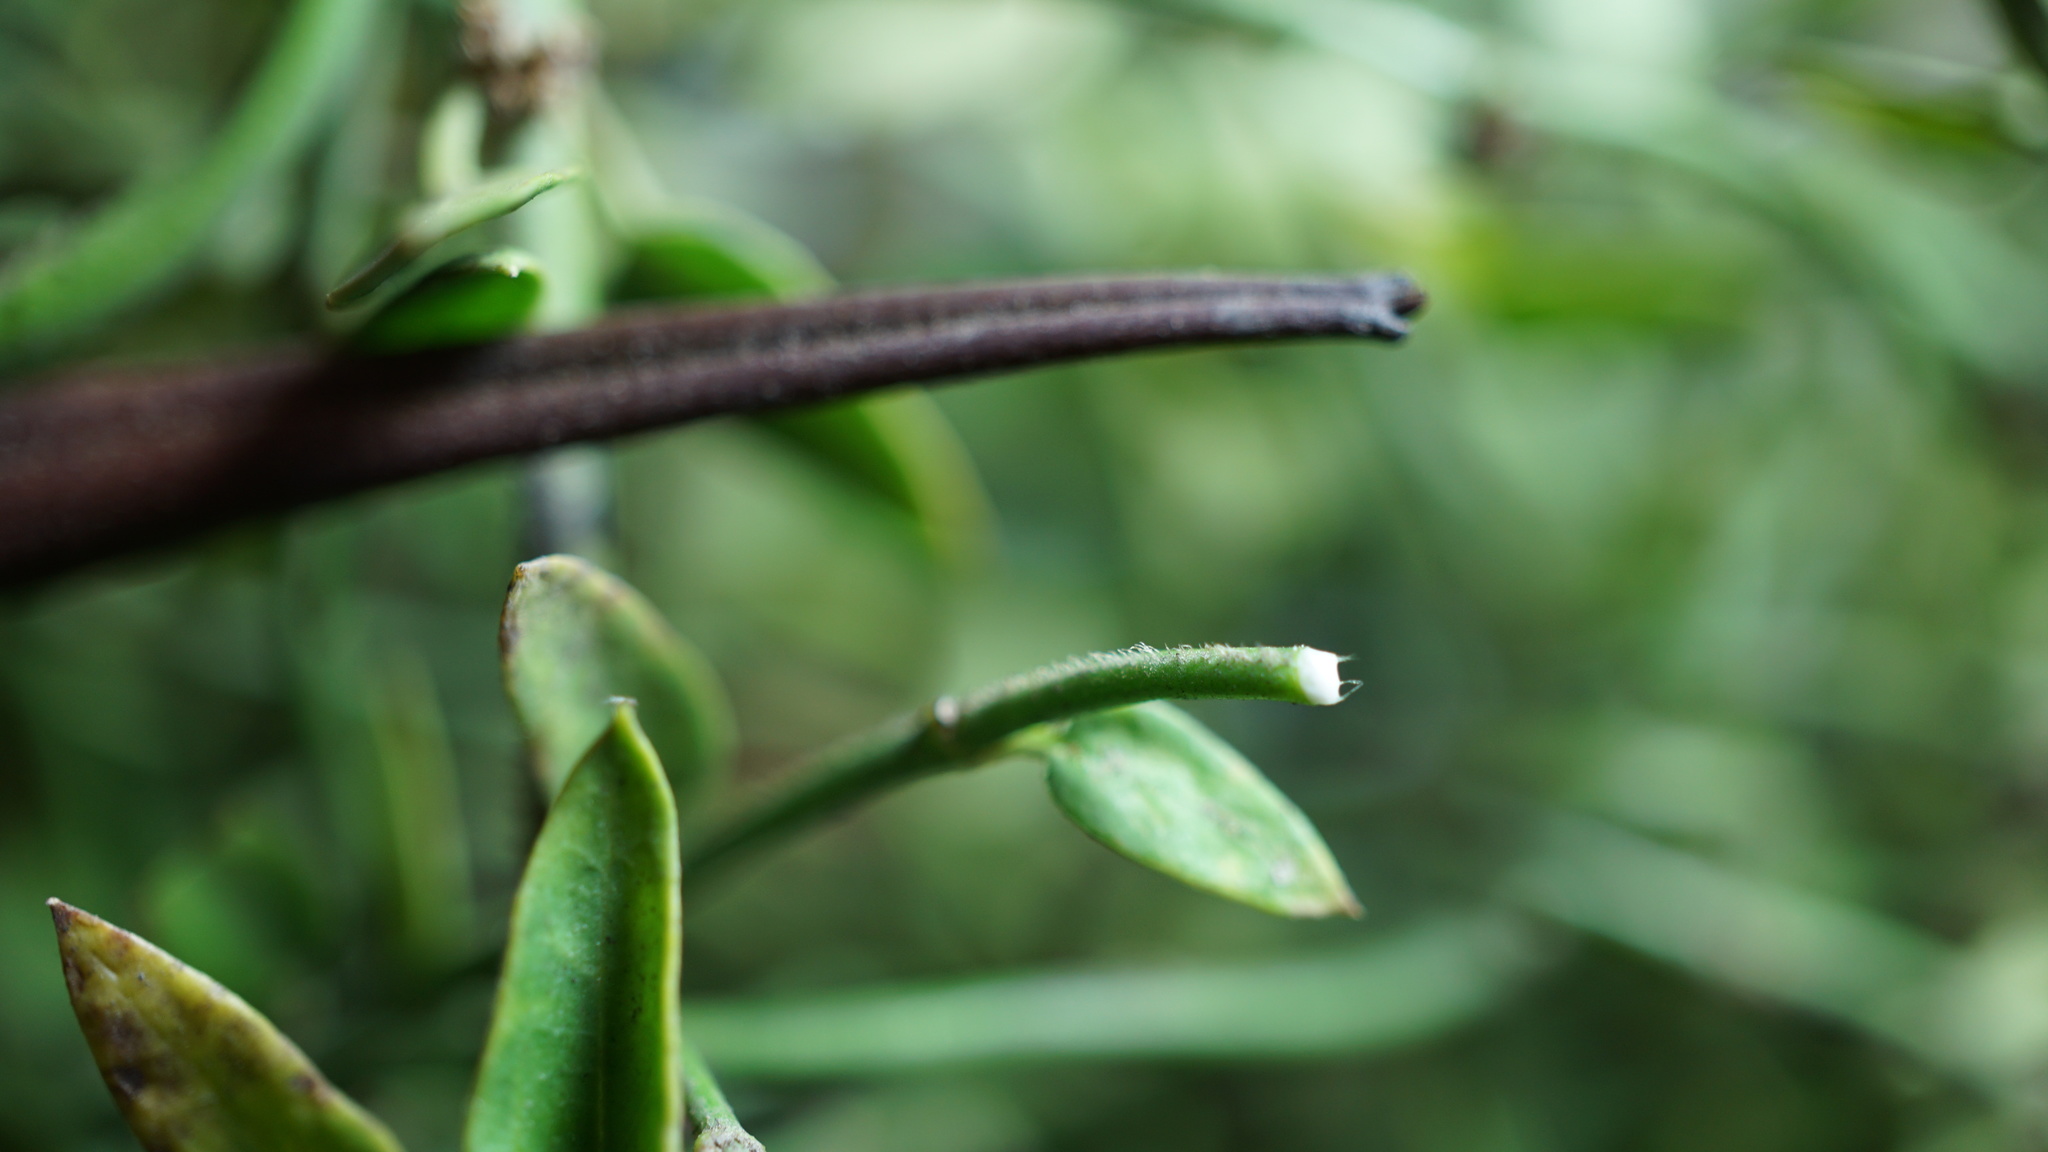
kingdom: Plantae
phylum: Tracheophyta
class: Magnoliopsida
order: Gentianales
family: Apocynaceae
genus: Scyphostelma
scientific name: Scyphostelma tenellum
